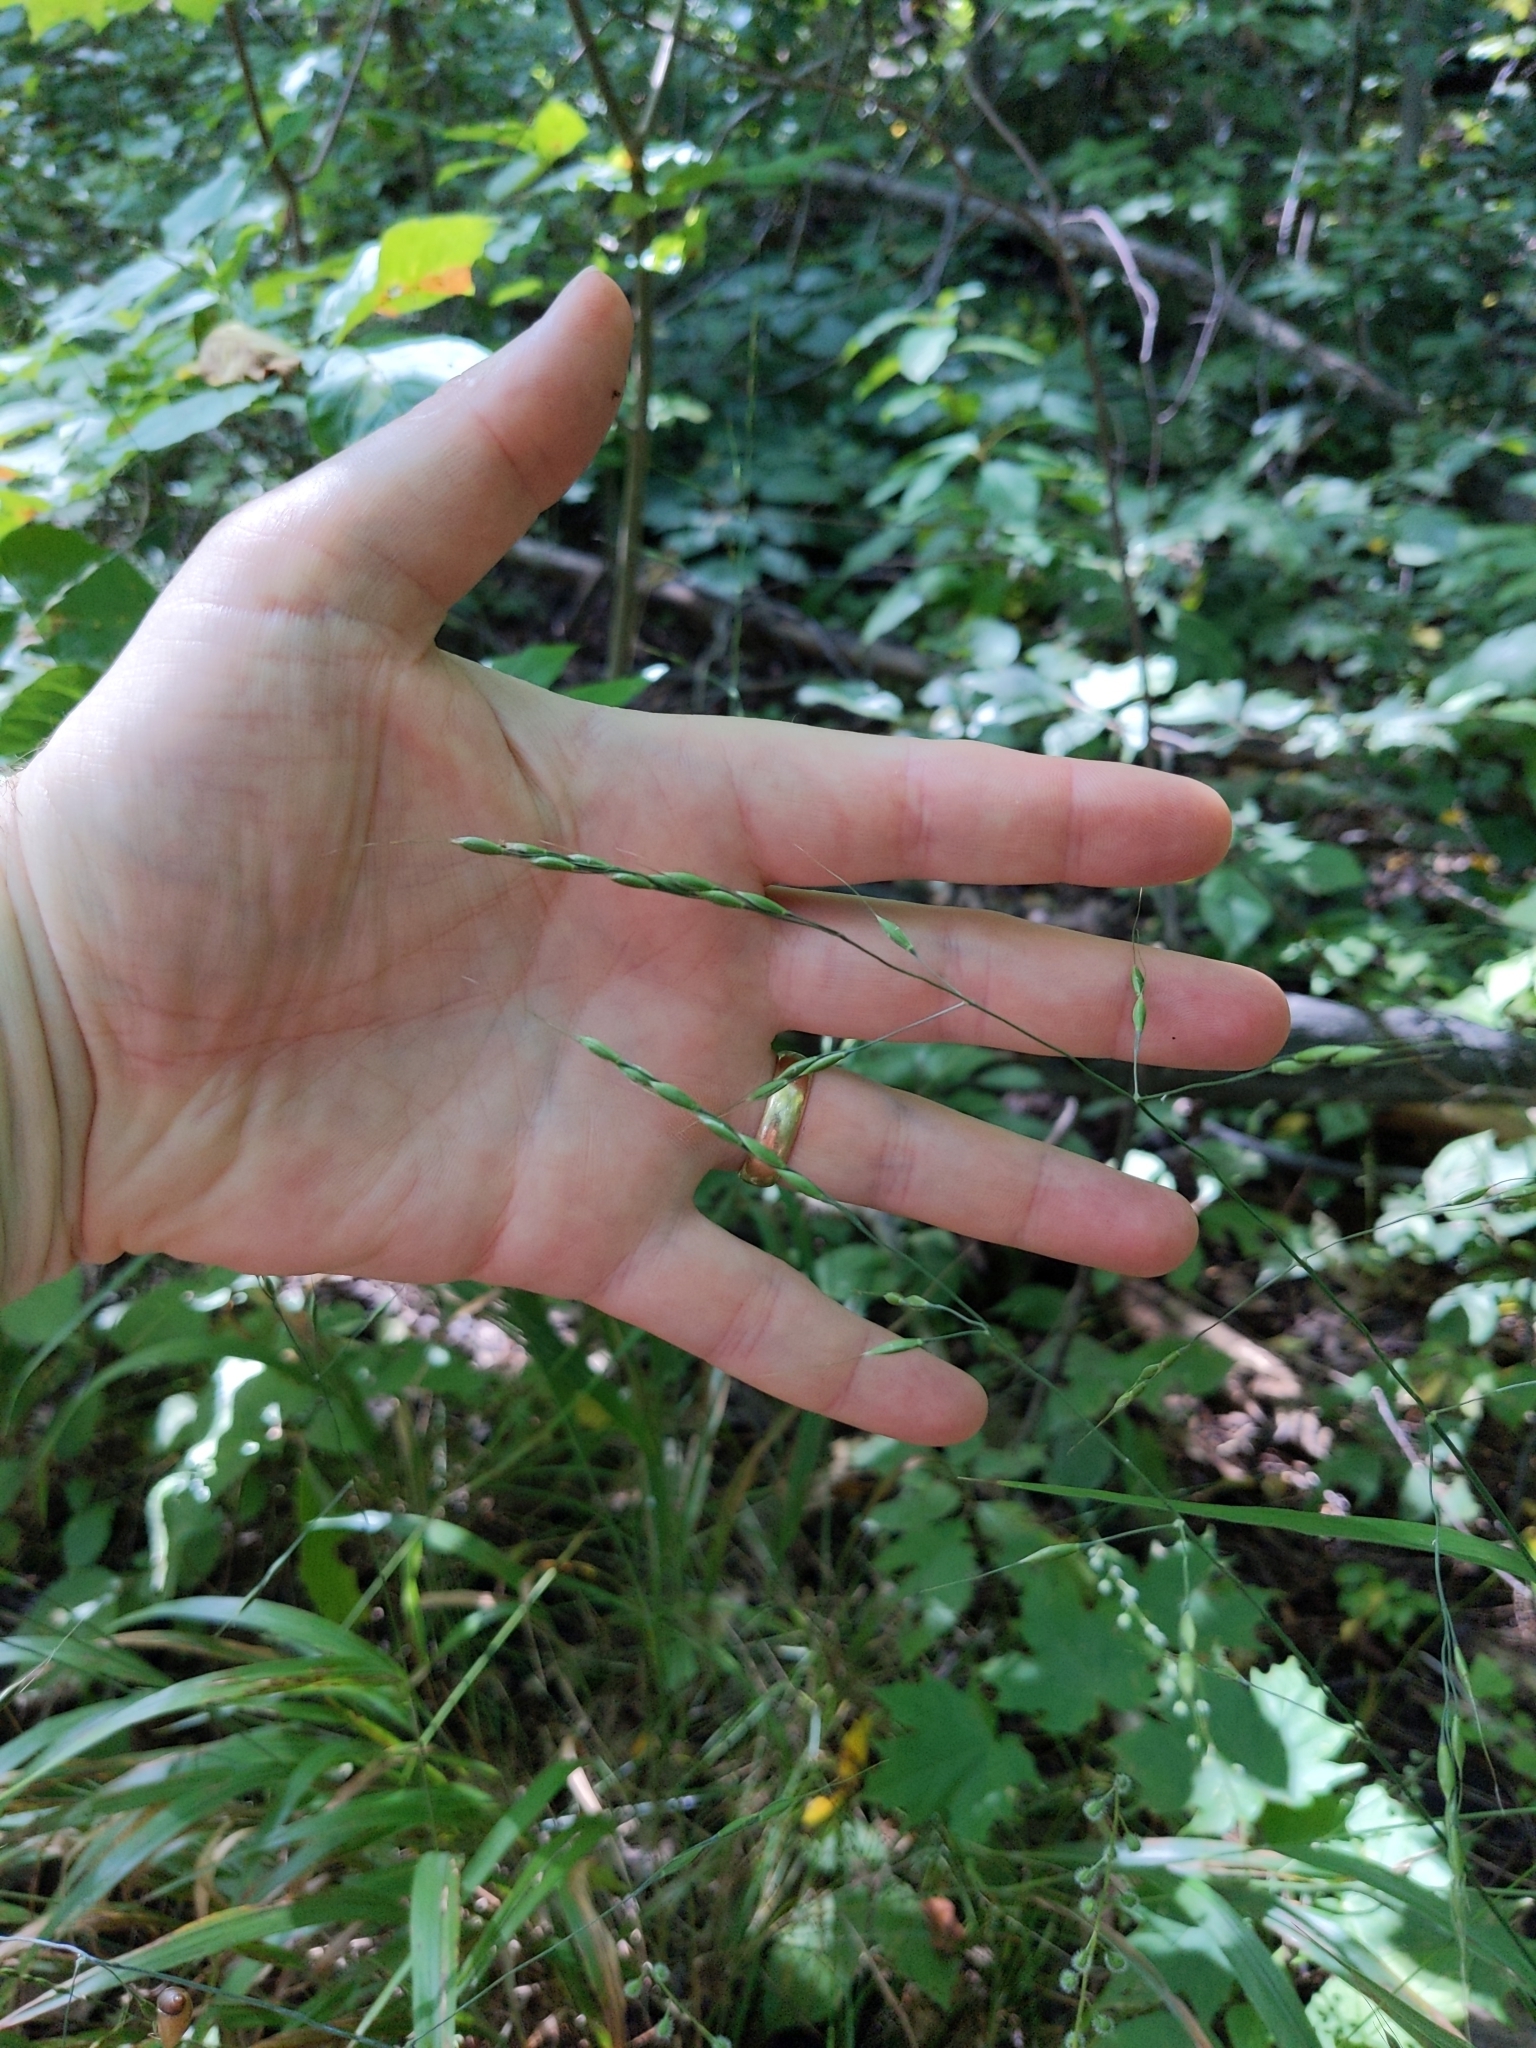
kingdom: Plantae
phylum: Tracheophyta
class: Liliopsida
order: Poales
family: Poaceae
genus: Patis
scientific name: Patis racemosa
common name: Black-fruited mountain rice
